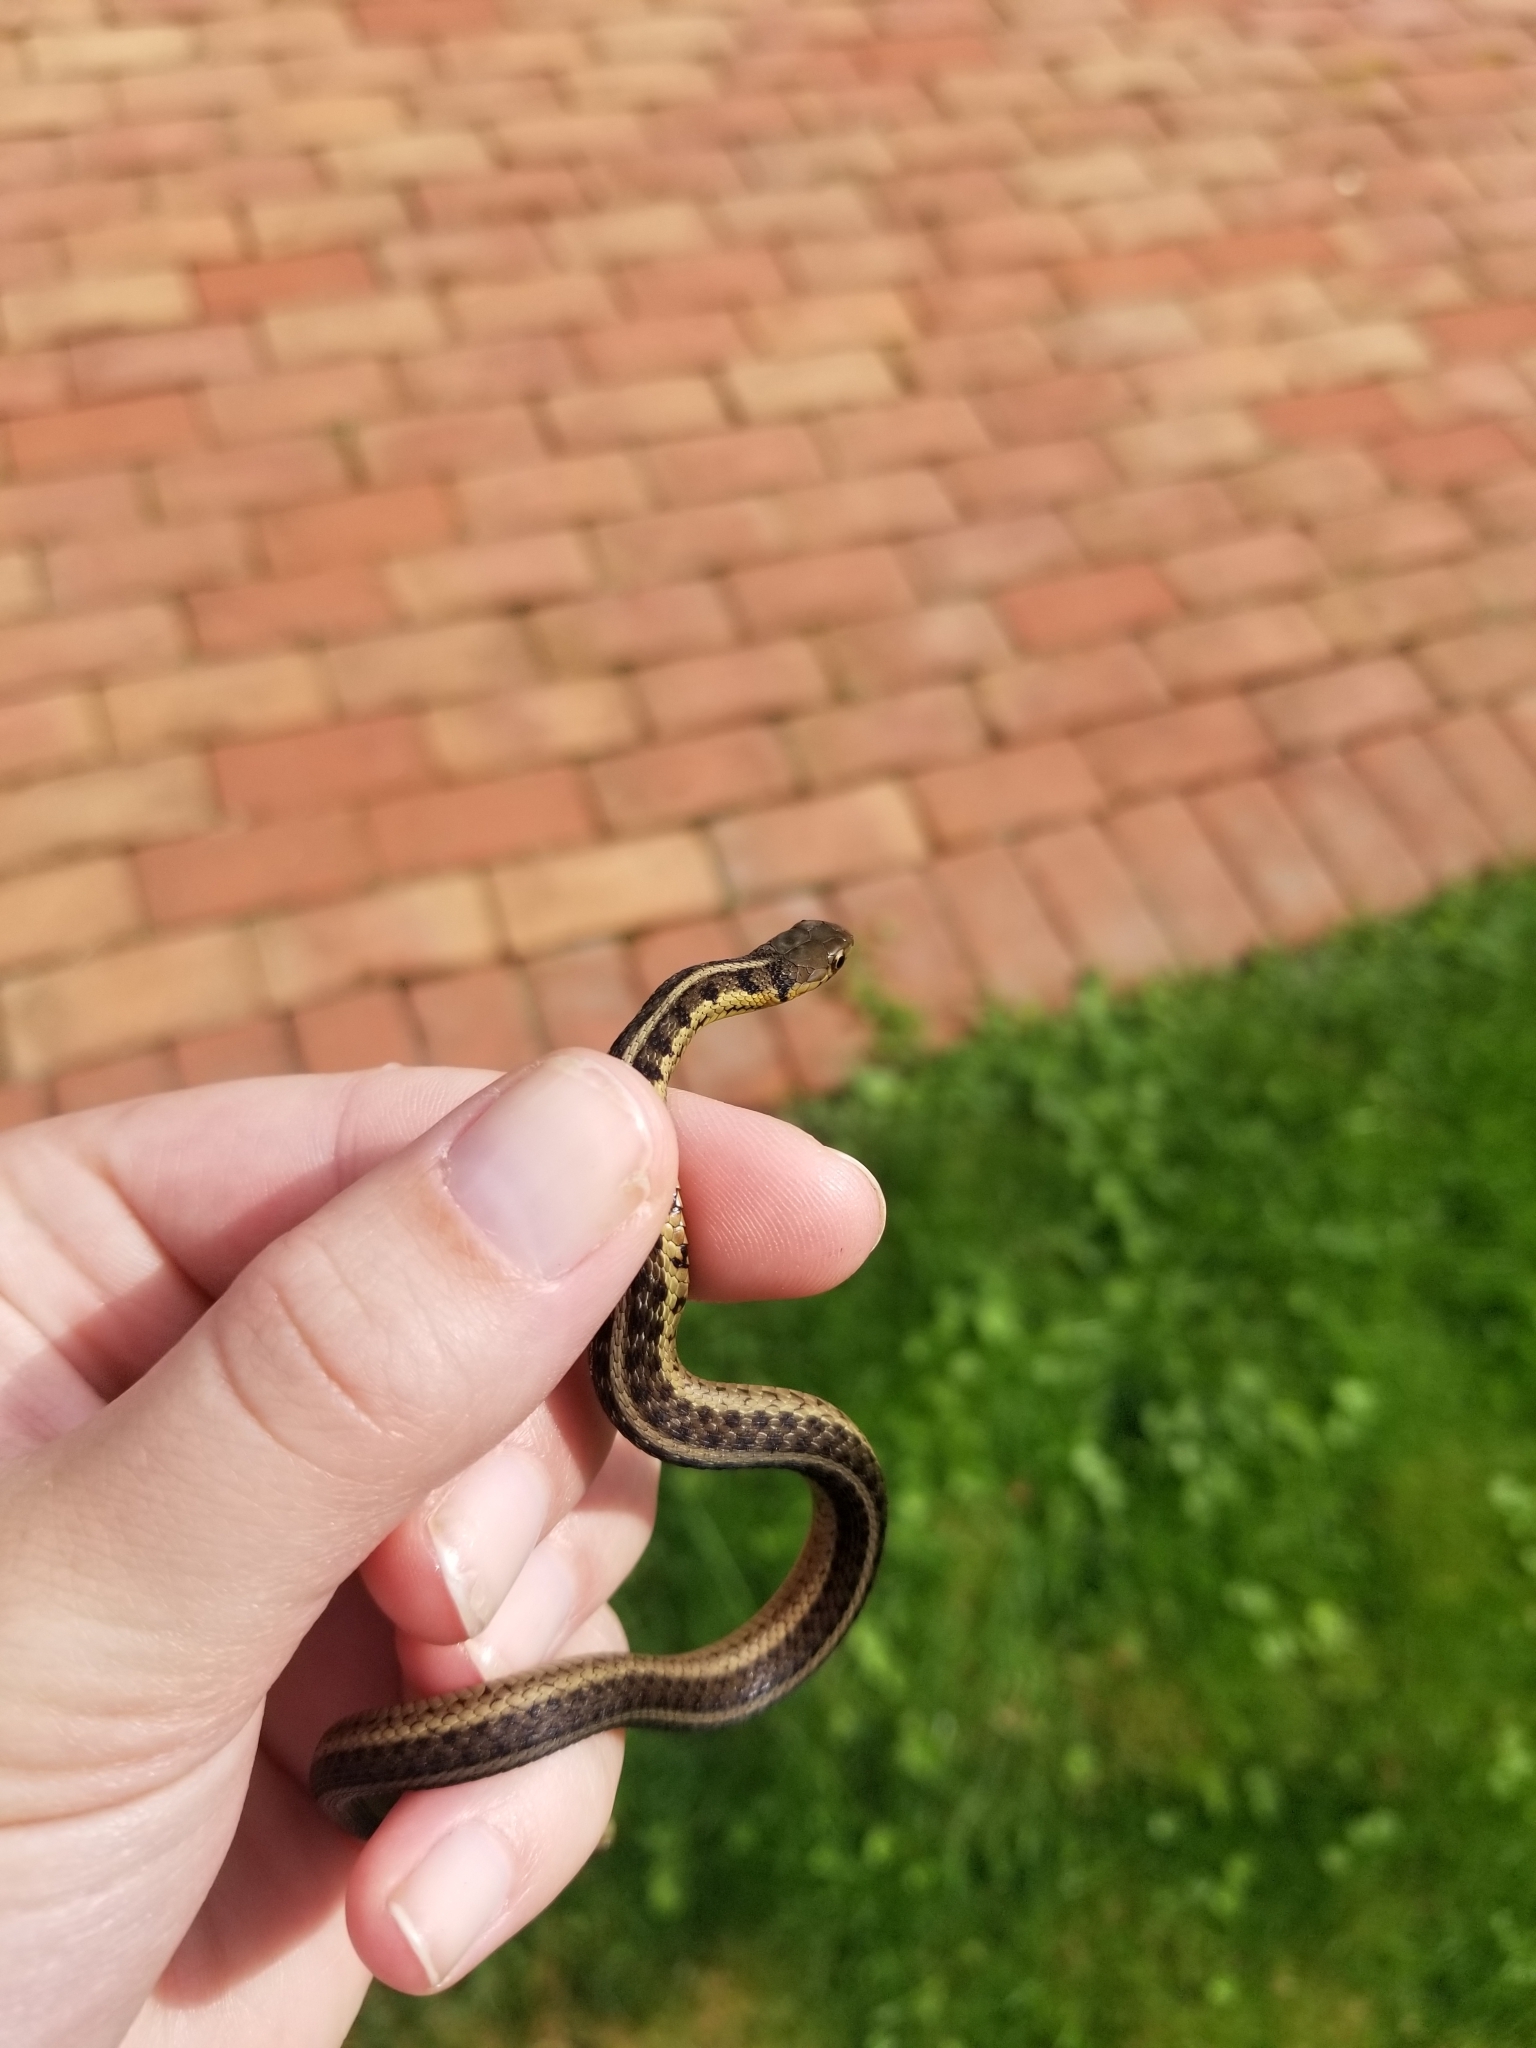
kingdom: Animalia
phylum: Chordata
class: Squamata
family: Colubridae
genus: Thamnophis
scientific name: Thamnophis sirtalis
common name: Common garter snake
